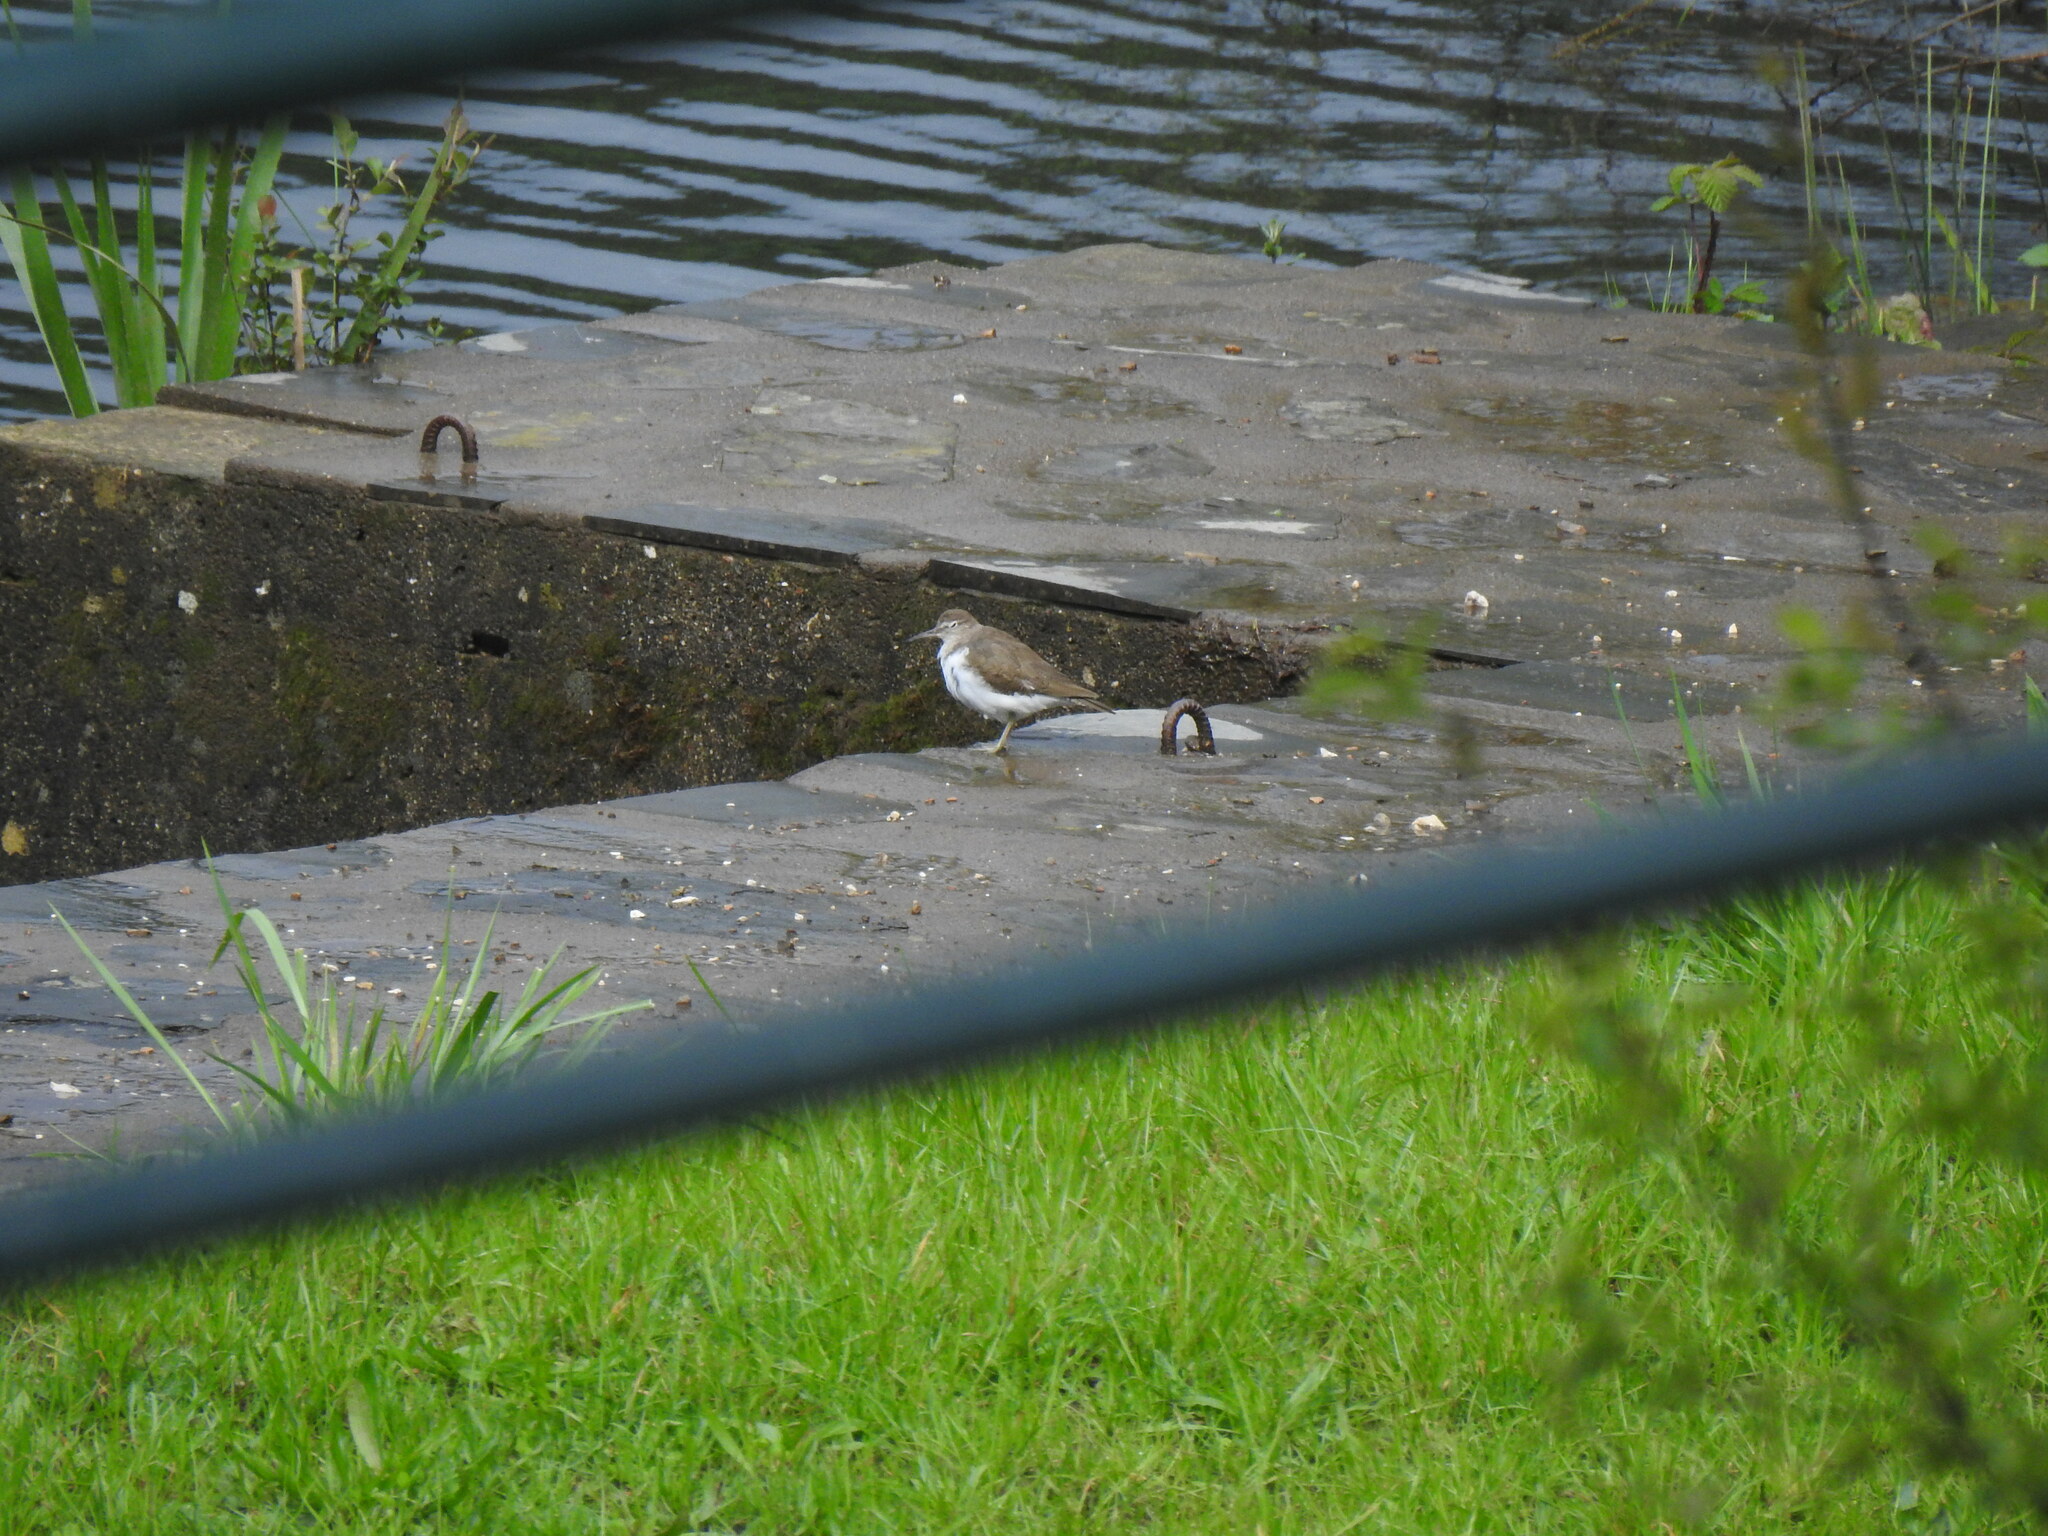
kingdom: Animalia
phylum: Chordata
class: Aves
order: Charadriiformes
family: Scolopacidae
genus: Actitis
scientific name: Actitis hypoleucos
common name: Common sandpiper
